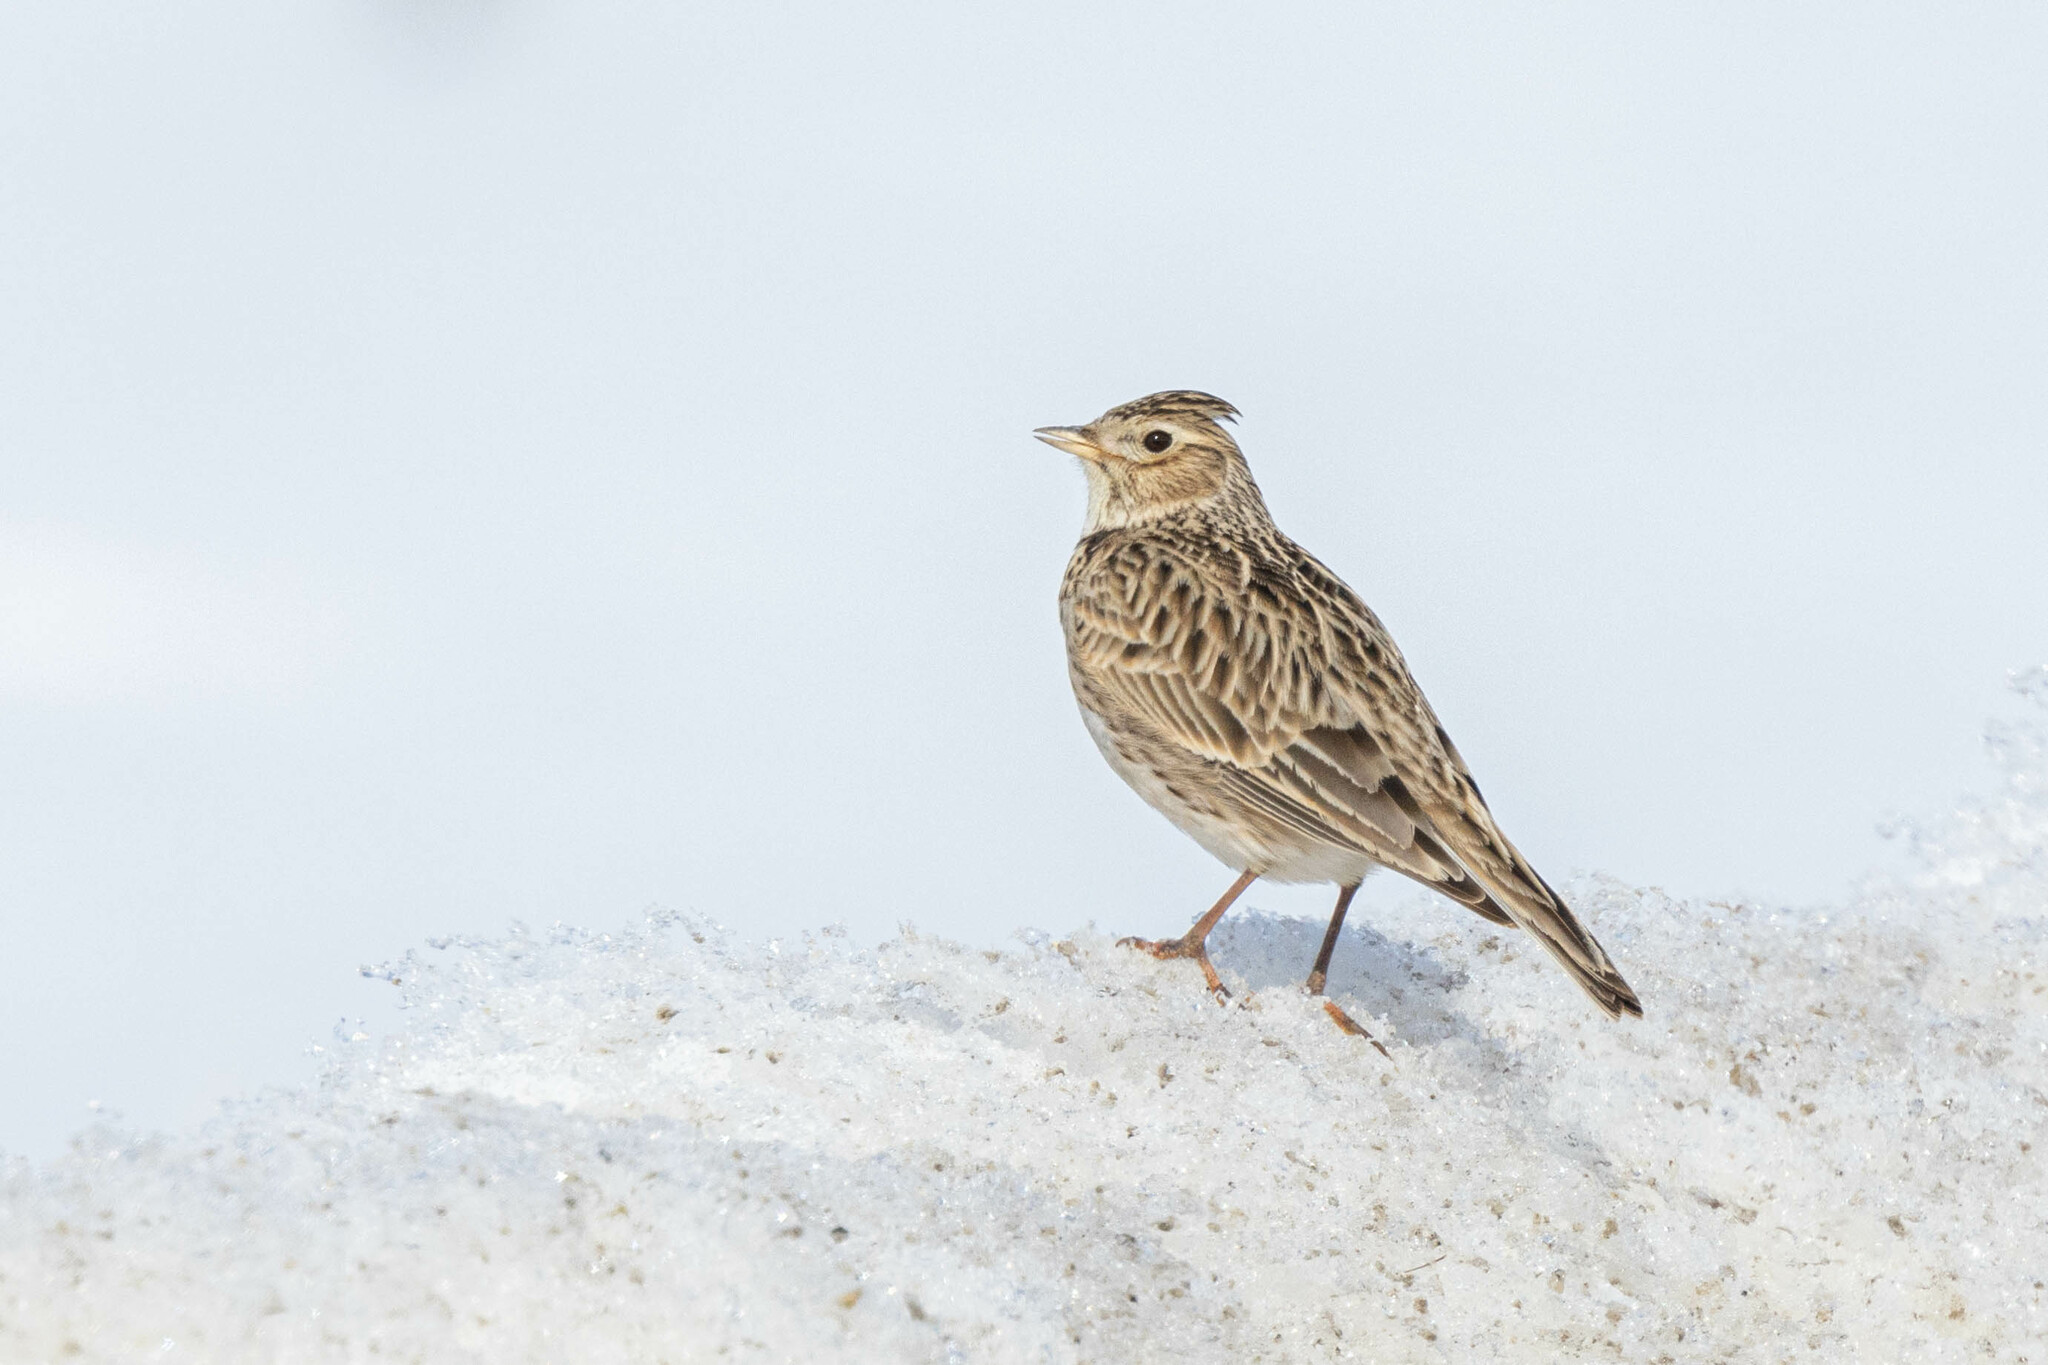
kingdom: Animalia
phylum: Chordata
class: Aves
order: Passeriformes
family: Alaudidae
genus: Alauda
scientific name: Alauda arvensis
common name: Eurasian skylark
